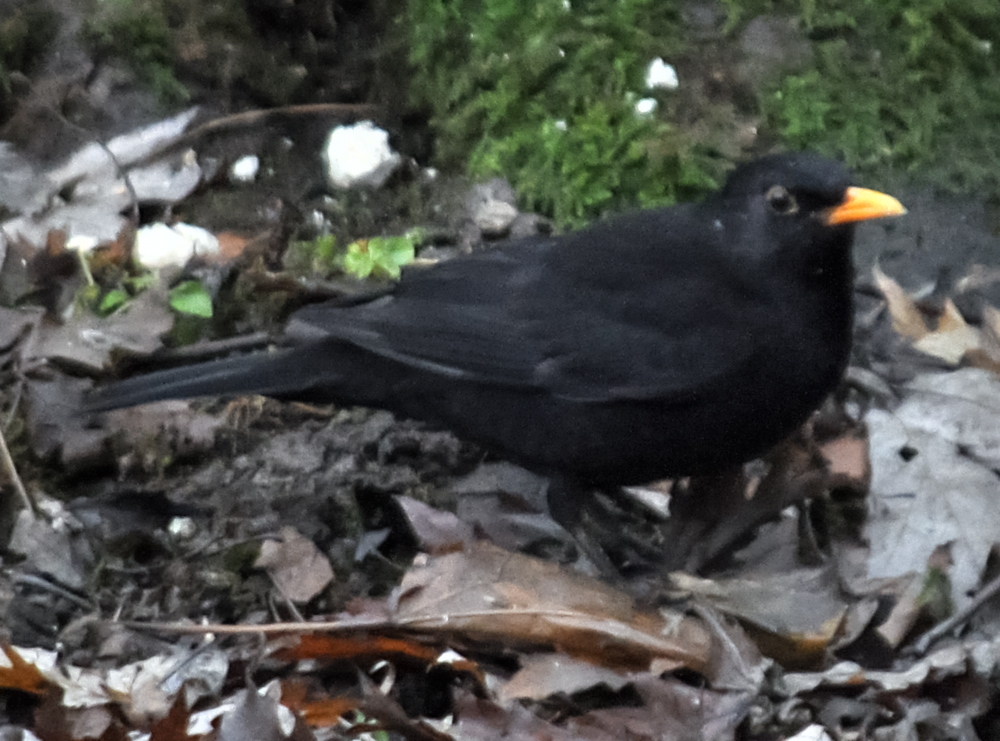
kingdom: Animalia
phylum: Chordata
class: Aves
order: Passeriformes
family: Turdidae
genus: Turdus
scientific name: Turdus merula
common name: Common blackbird
